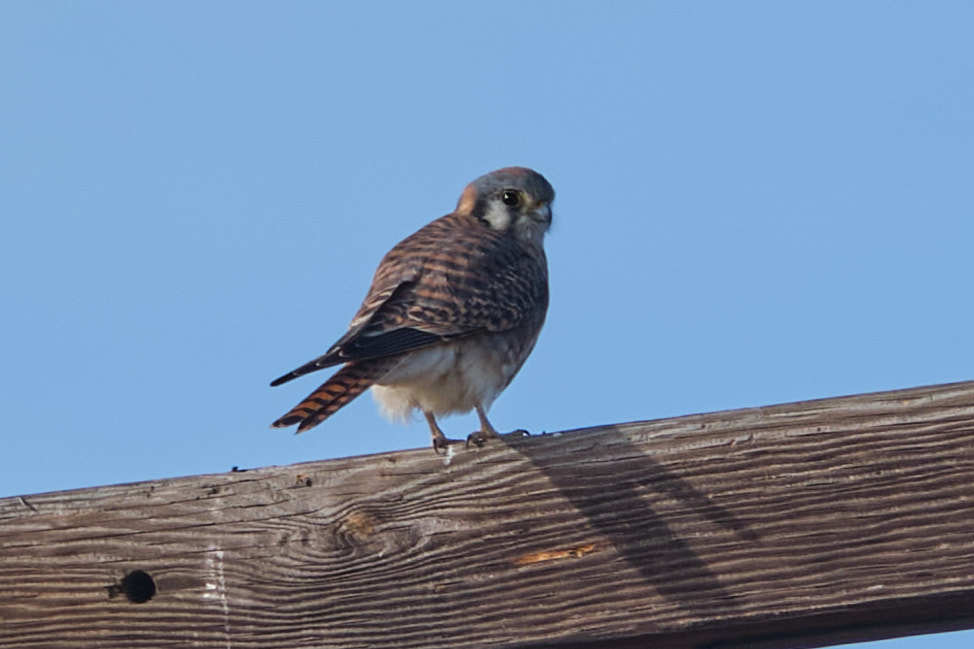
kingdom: Animalia
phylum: Chordata
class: Aves
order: Falconiformes
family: Falconidae
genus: Falco
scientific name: Falco sparverius
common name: American kestrel
